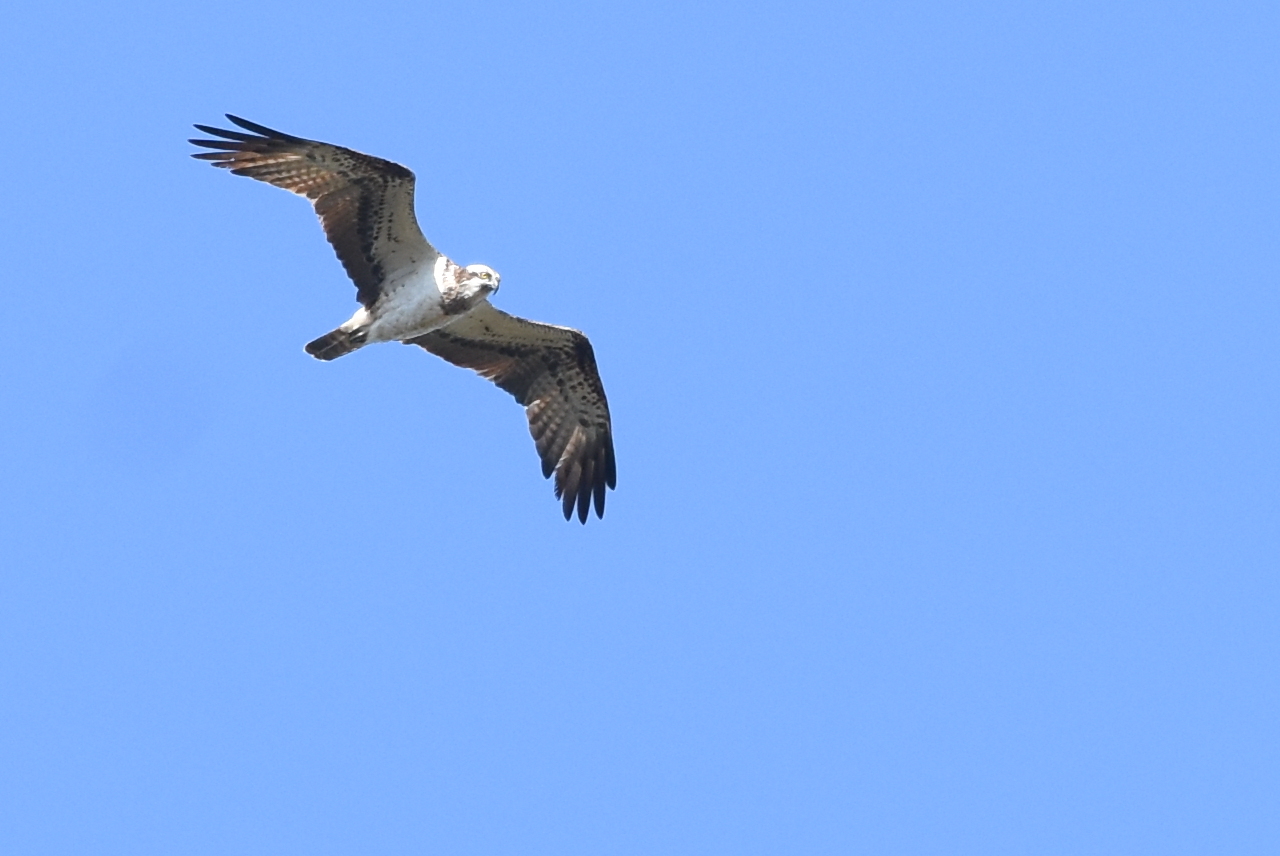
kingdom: Animalia
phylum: Chordata
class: Aves
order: Accipitriformes
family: Pandionidae
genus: Pandion
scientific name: Pandion haliaetus
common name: Osprey
